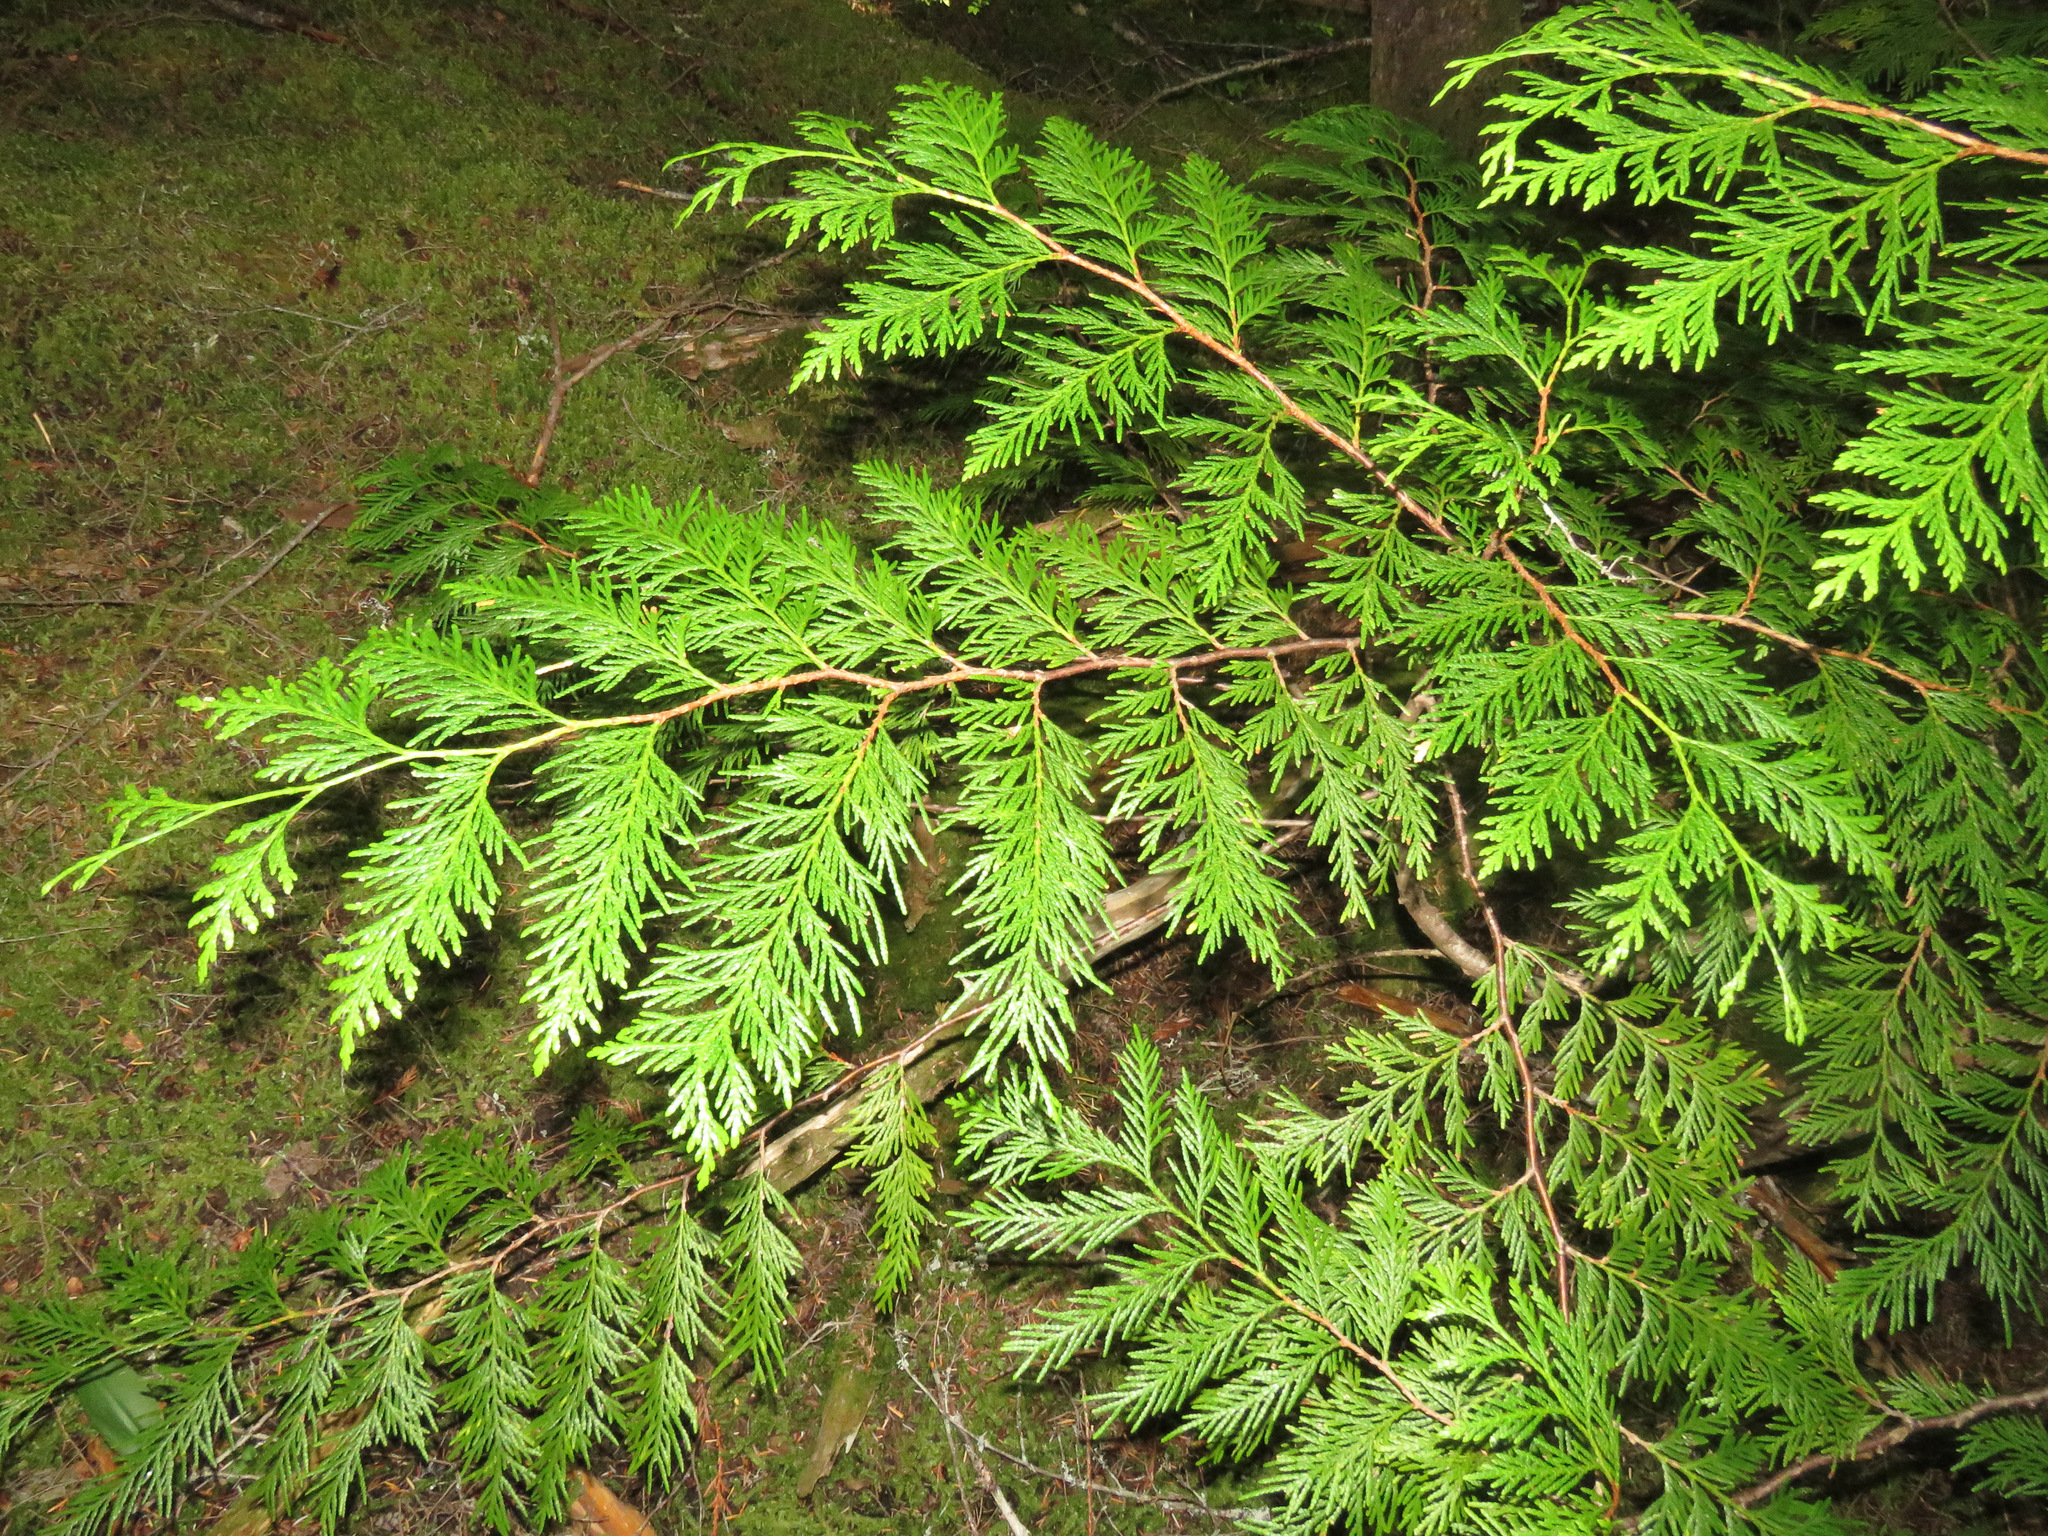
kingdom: Plantae
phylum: Tracheophyta
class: Pinopsida
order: Pinales
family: Cupressaceae
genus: Thuja
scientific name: Thuja plicata
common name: Western red-cedar
